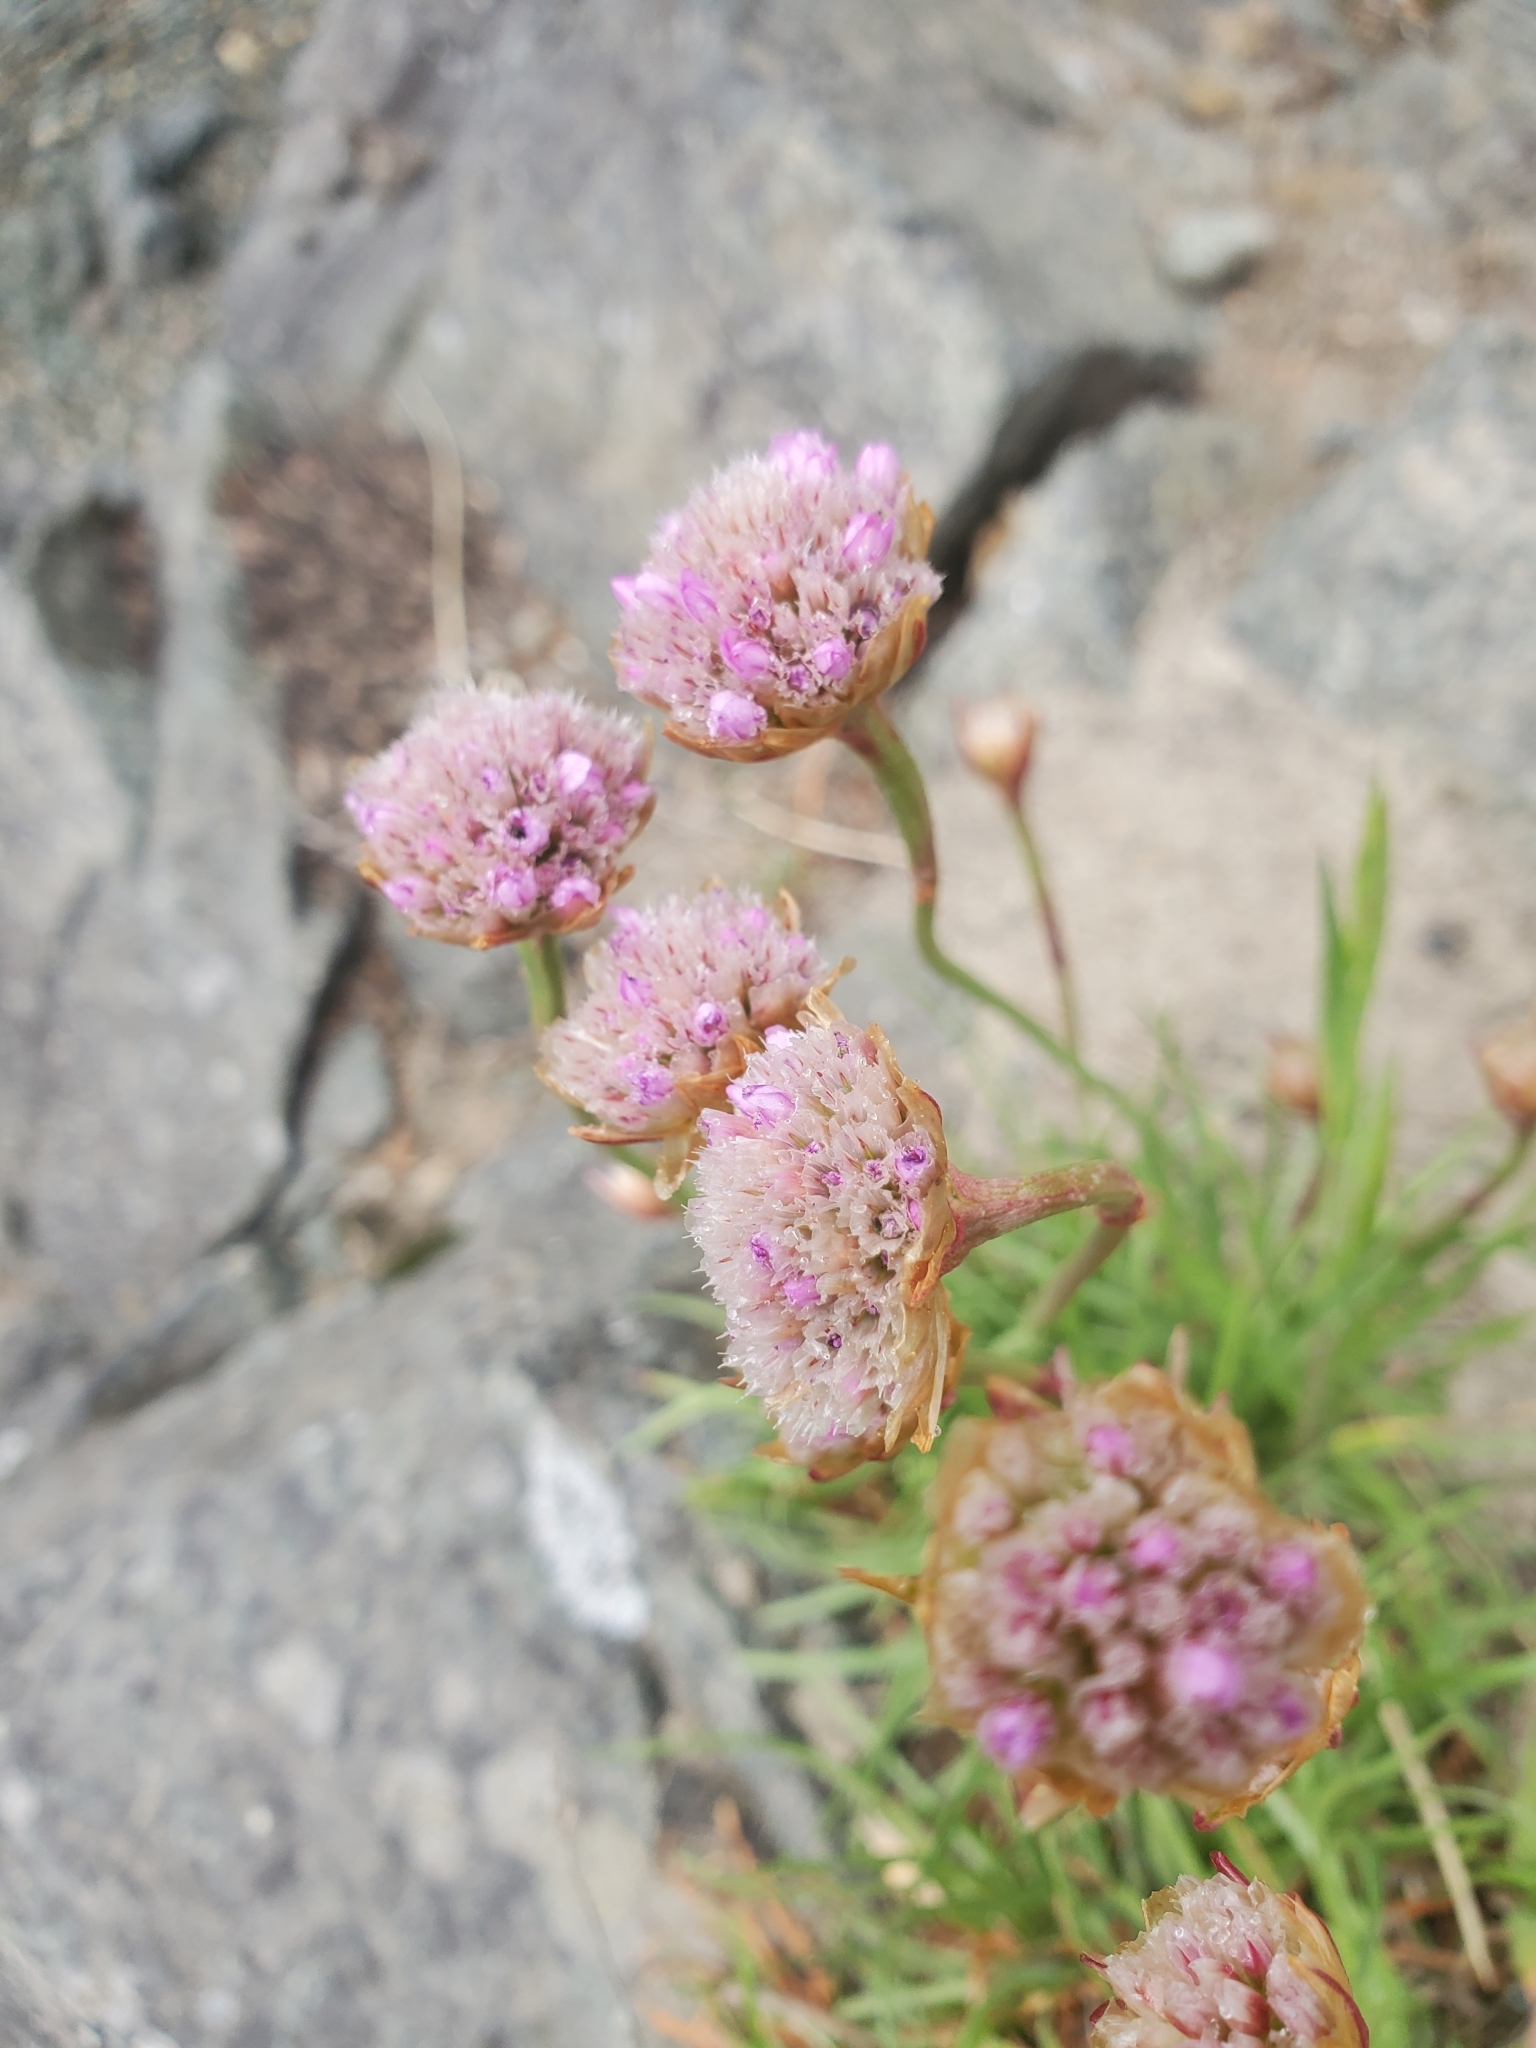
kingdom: Plantae
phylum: Tracheophyta
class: Magnoliopsida
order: Caryophyllales
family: Plumbaginaceae
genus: Armeria
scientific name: Armeria maritima
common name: Thrift
